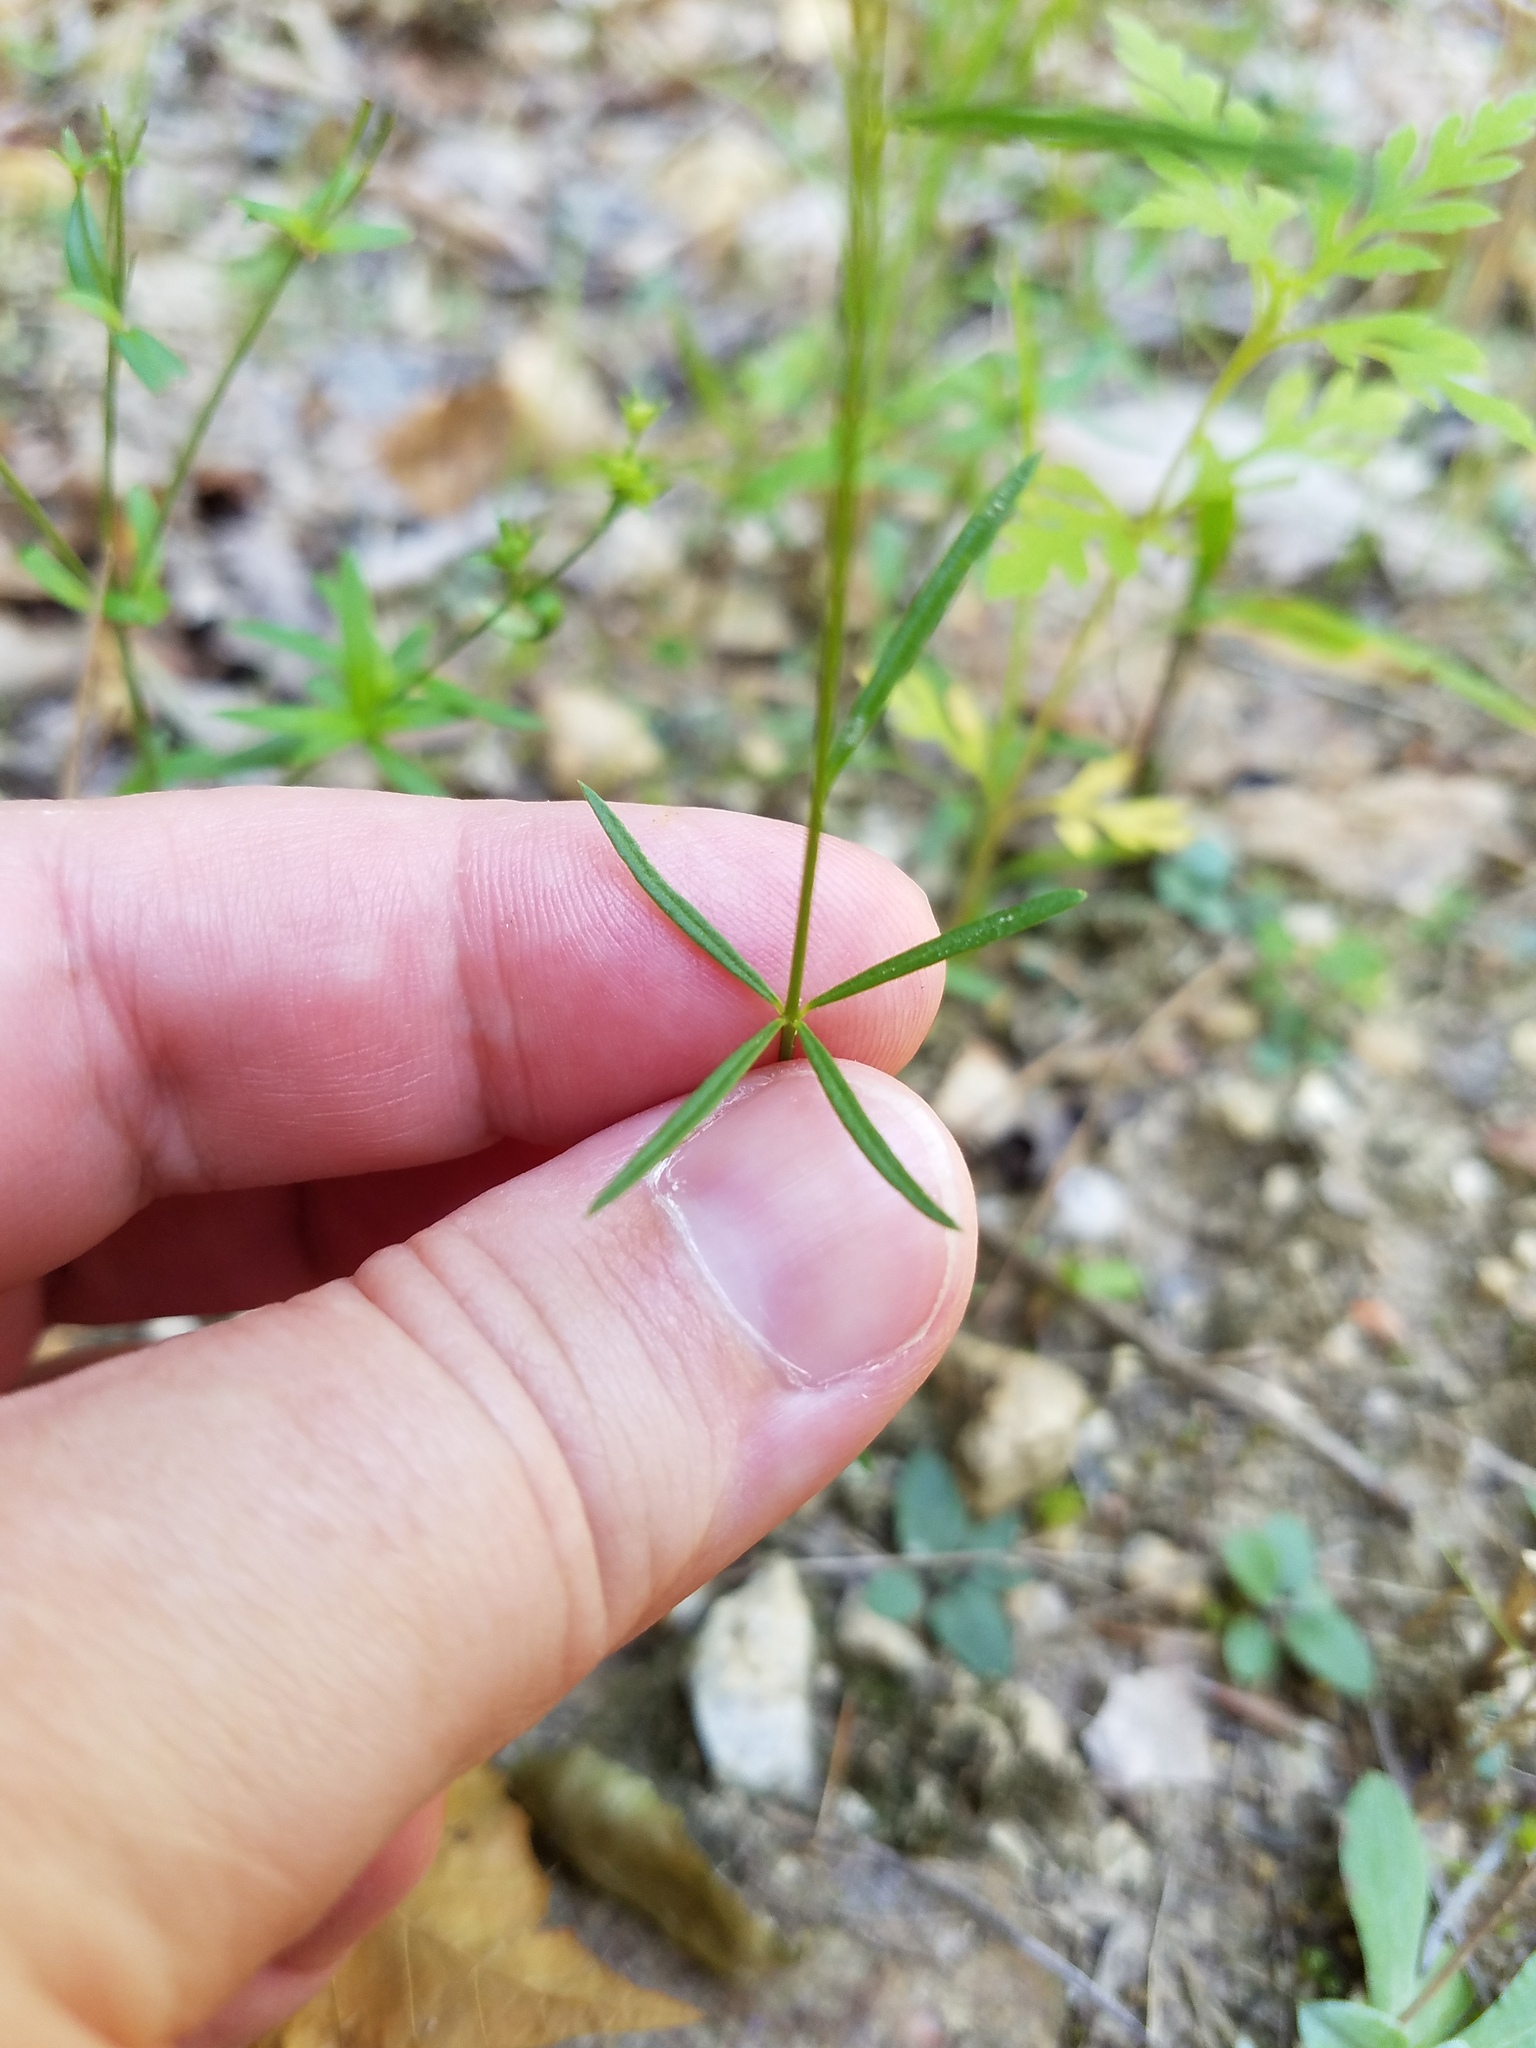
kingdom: Plantae
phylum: Tracheophyta
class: Magnoliopsida
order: Fabales
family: Polygalaceae
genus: Polygala
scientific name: Polygala verticillata
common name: Whorl milkwort
